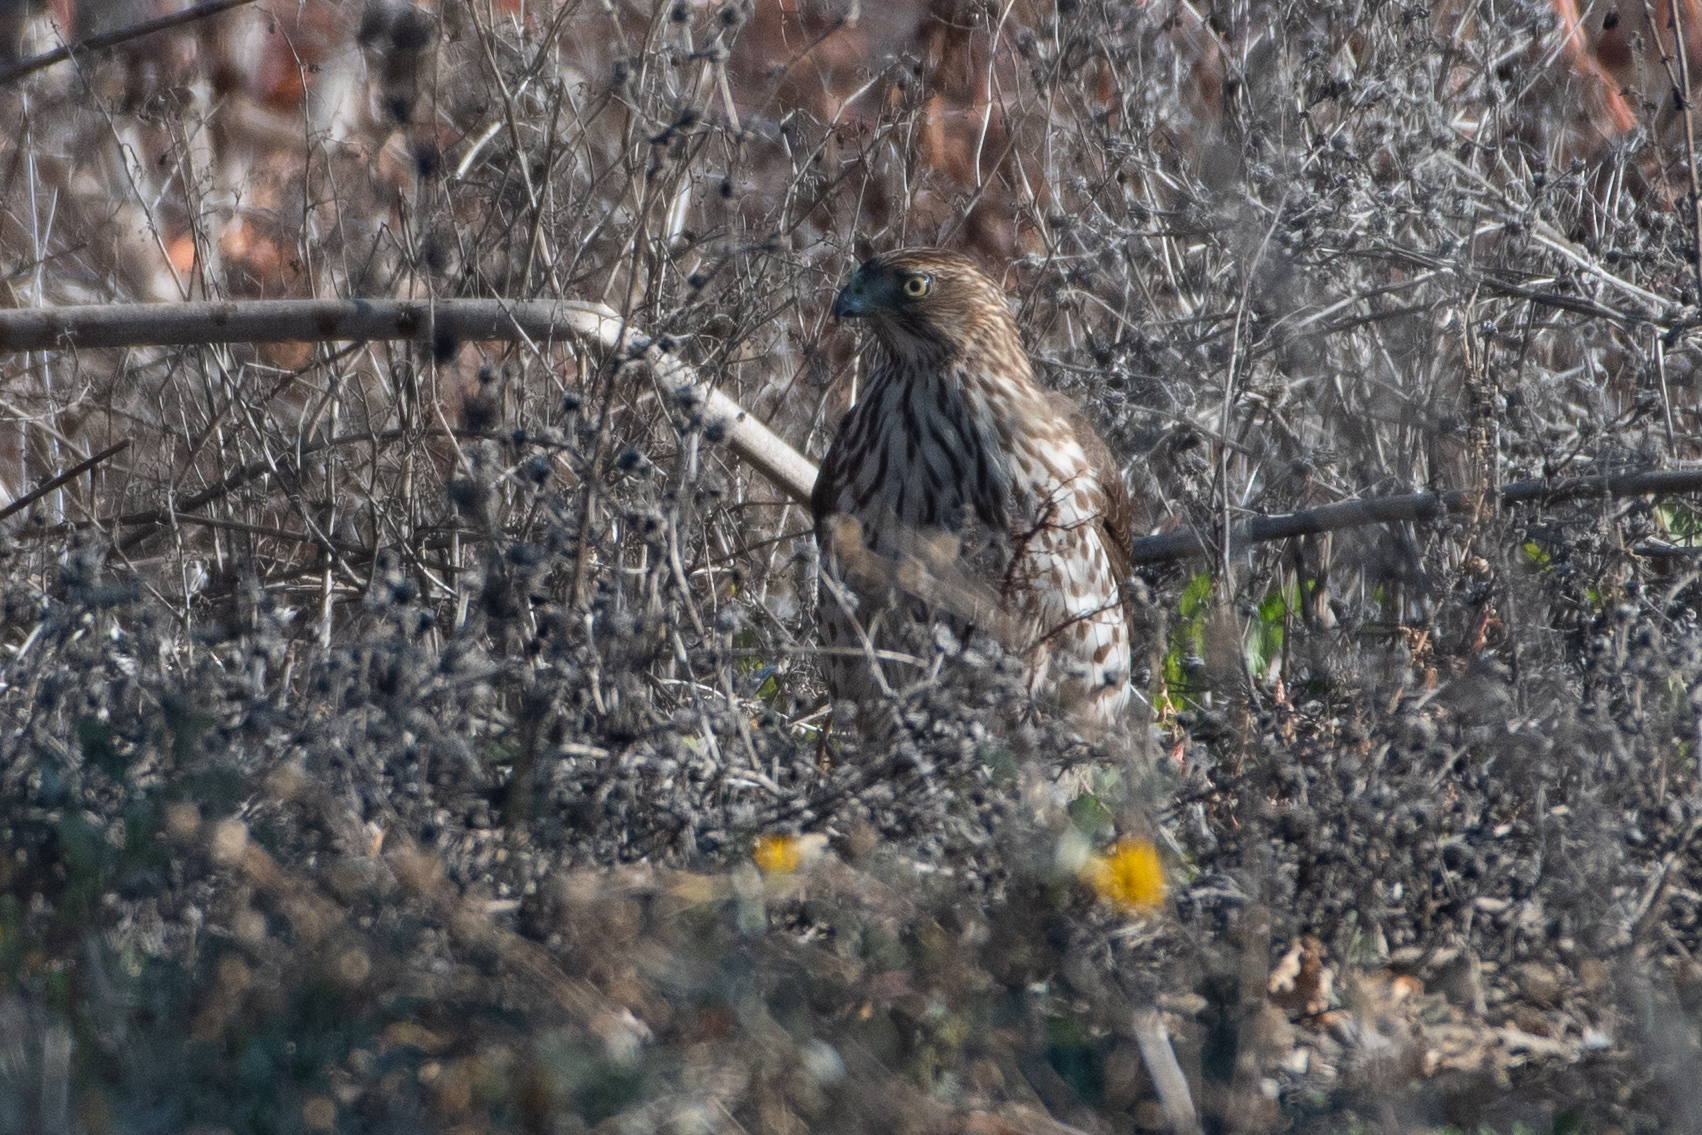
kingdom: Animalia
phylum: Chordata
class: Aves
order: Accipitriformes
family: Accipitridae
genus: Accipiter
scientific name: Accipiter cooperii
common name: Cooper's hawk
